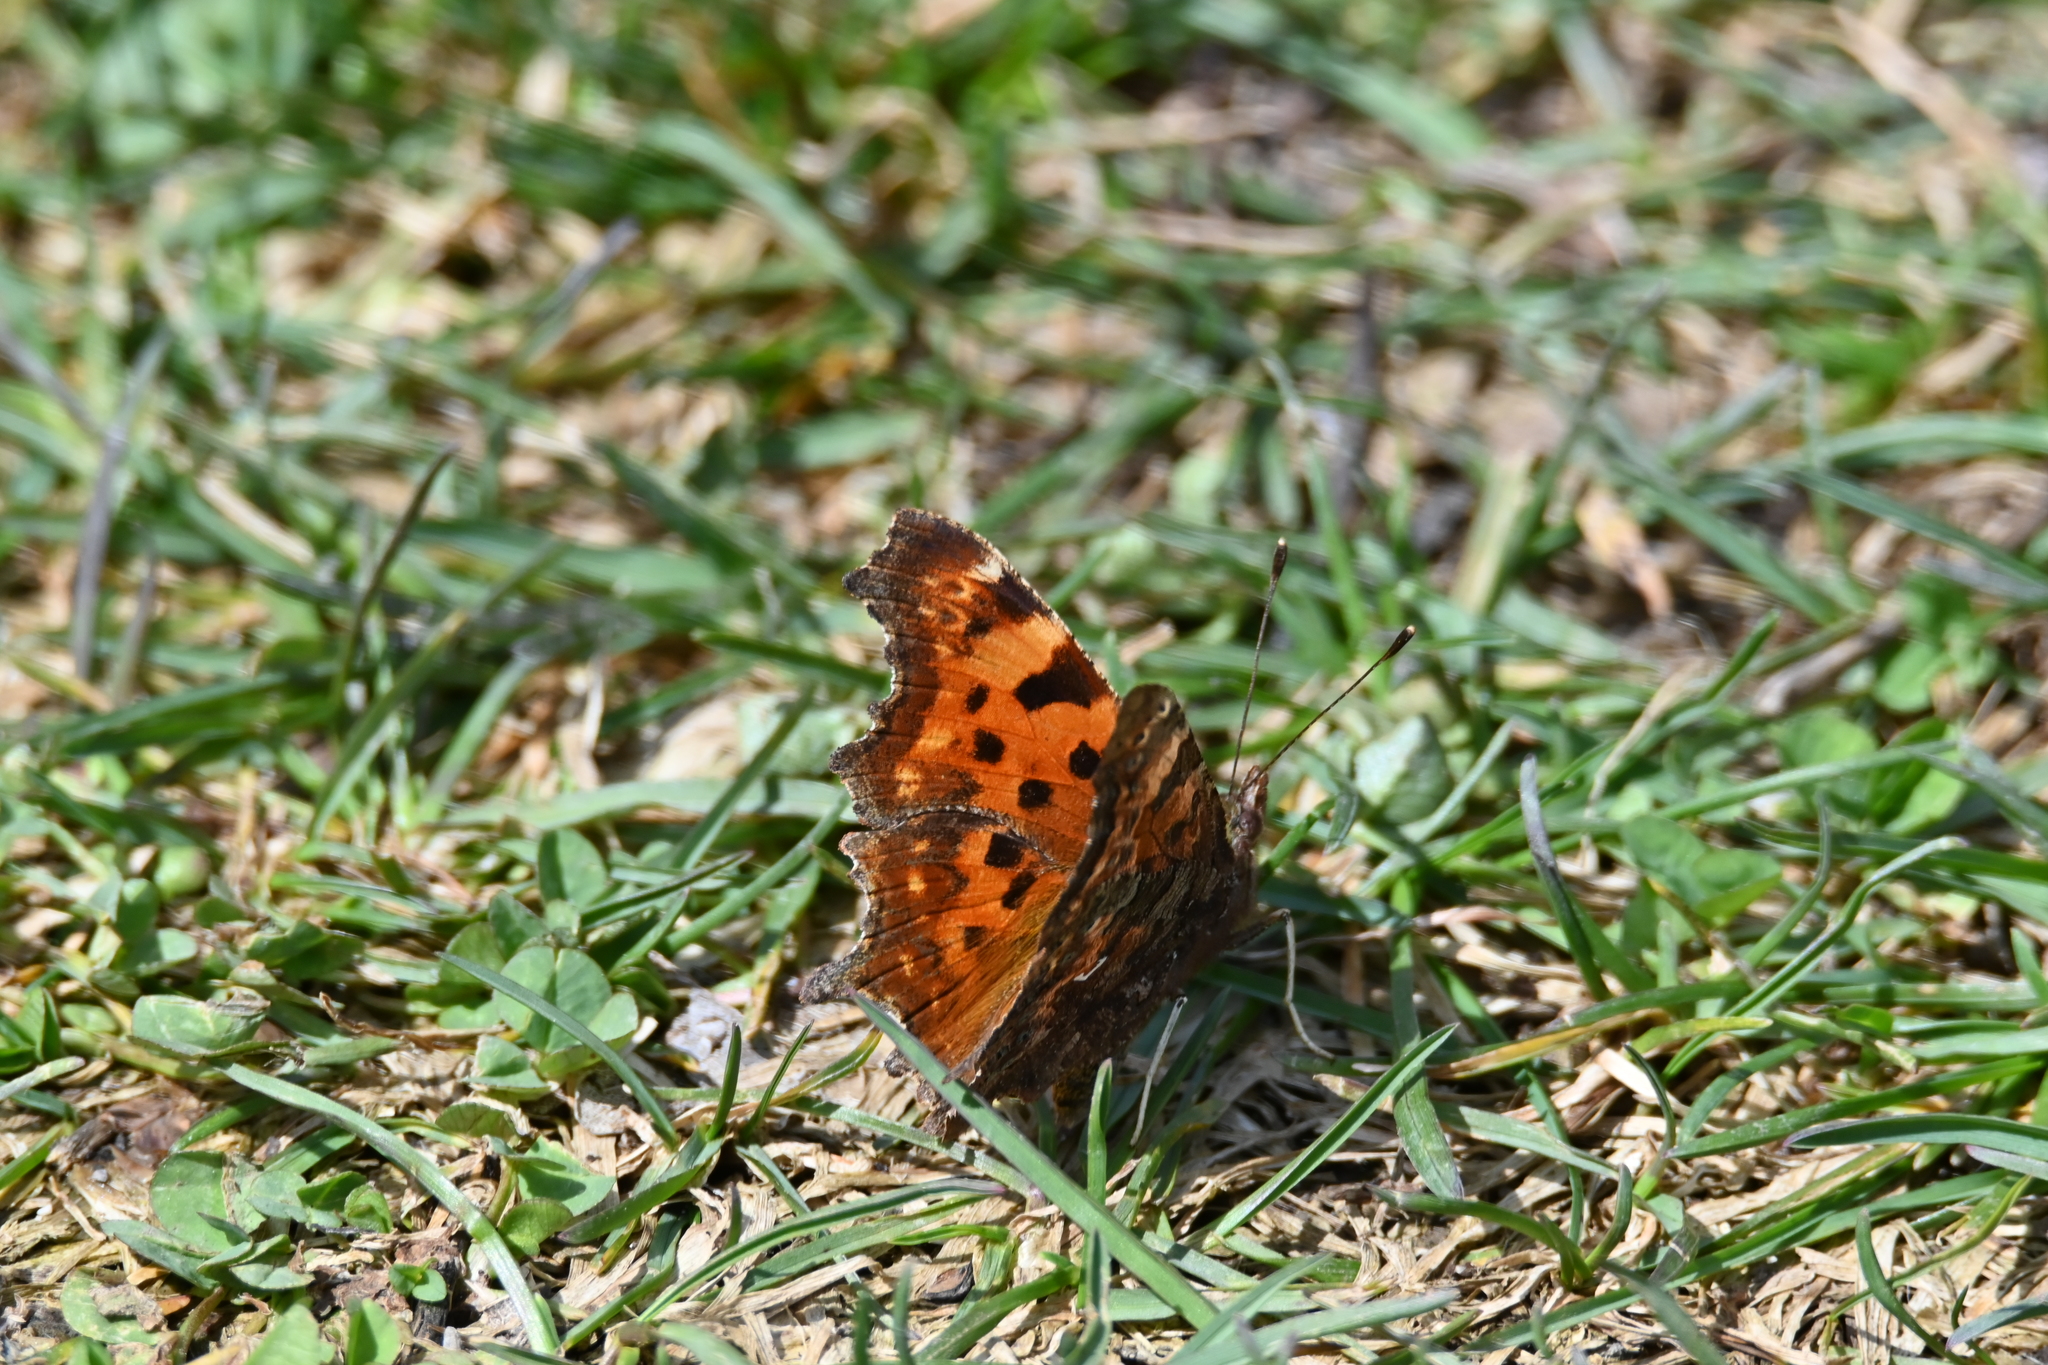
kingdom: Animalia
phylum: Arthropoda
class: Insecta
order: Lepidoptera
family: Nymphalidae
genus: Polygonia
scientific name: Polygonia c-album
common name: Comma
